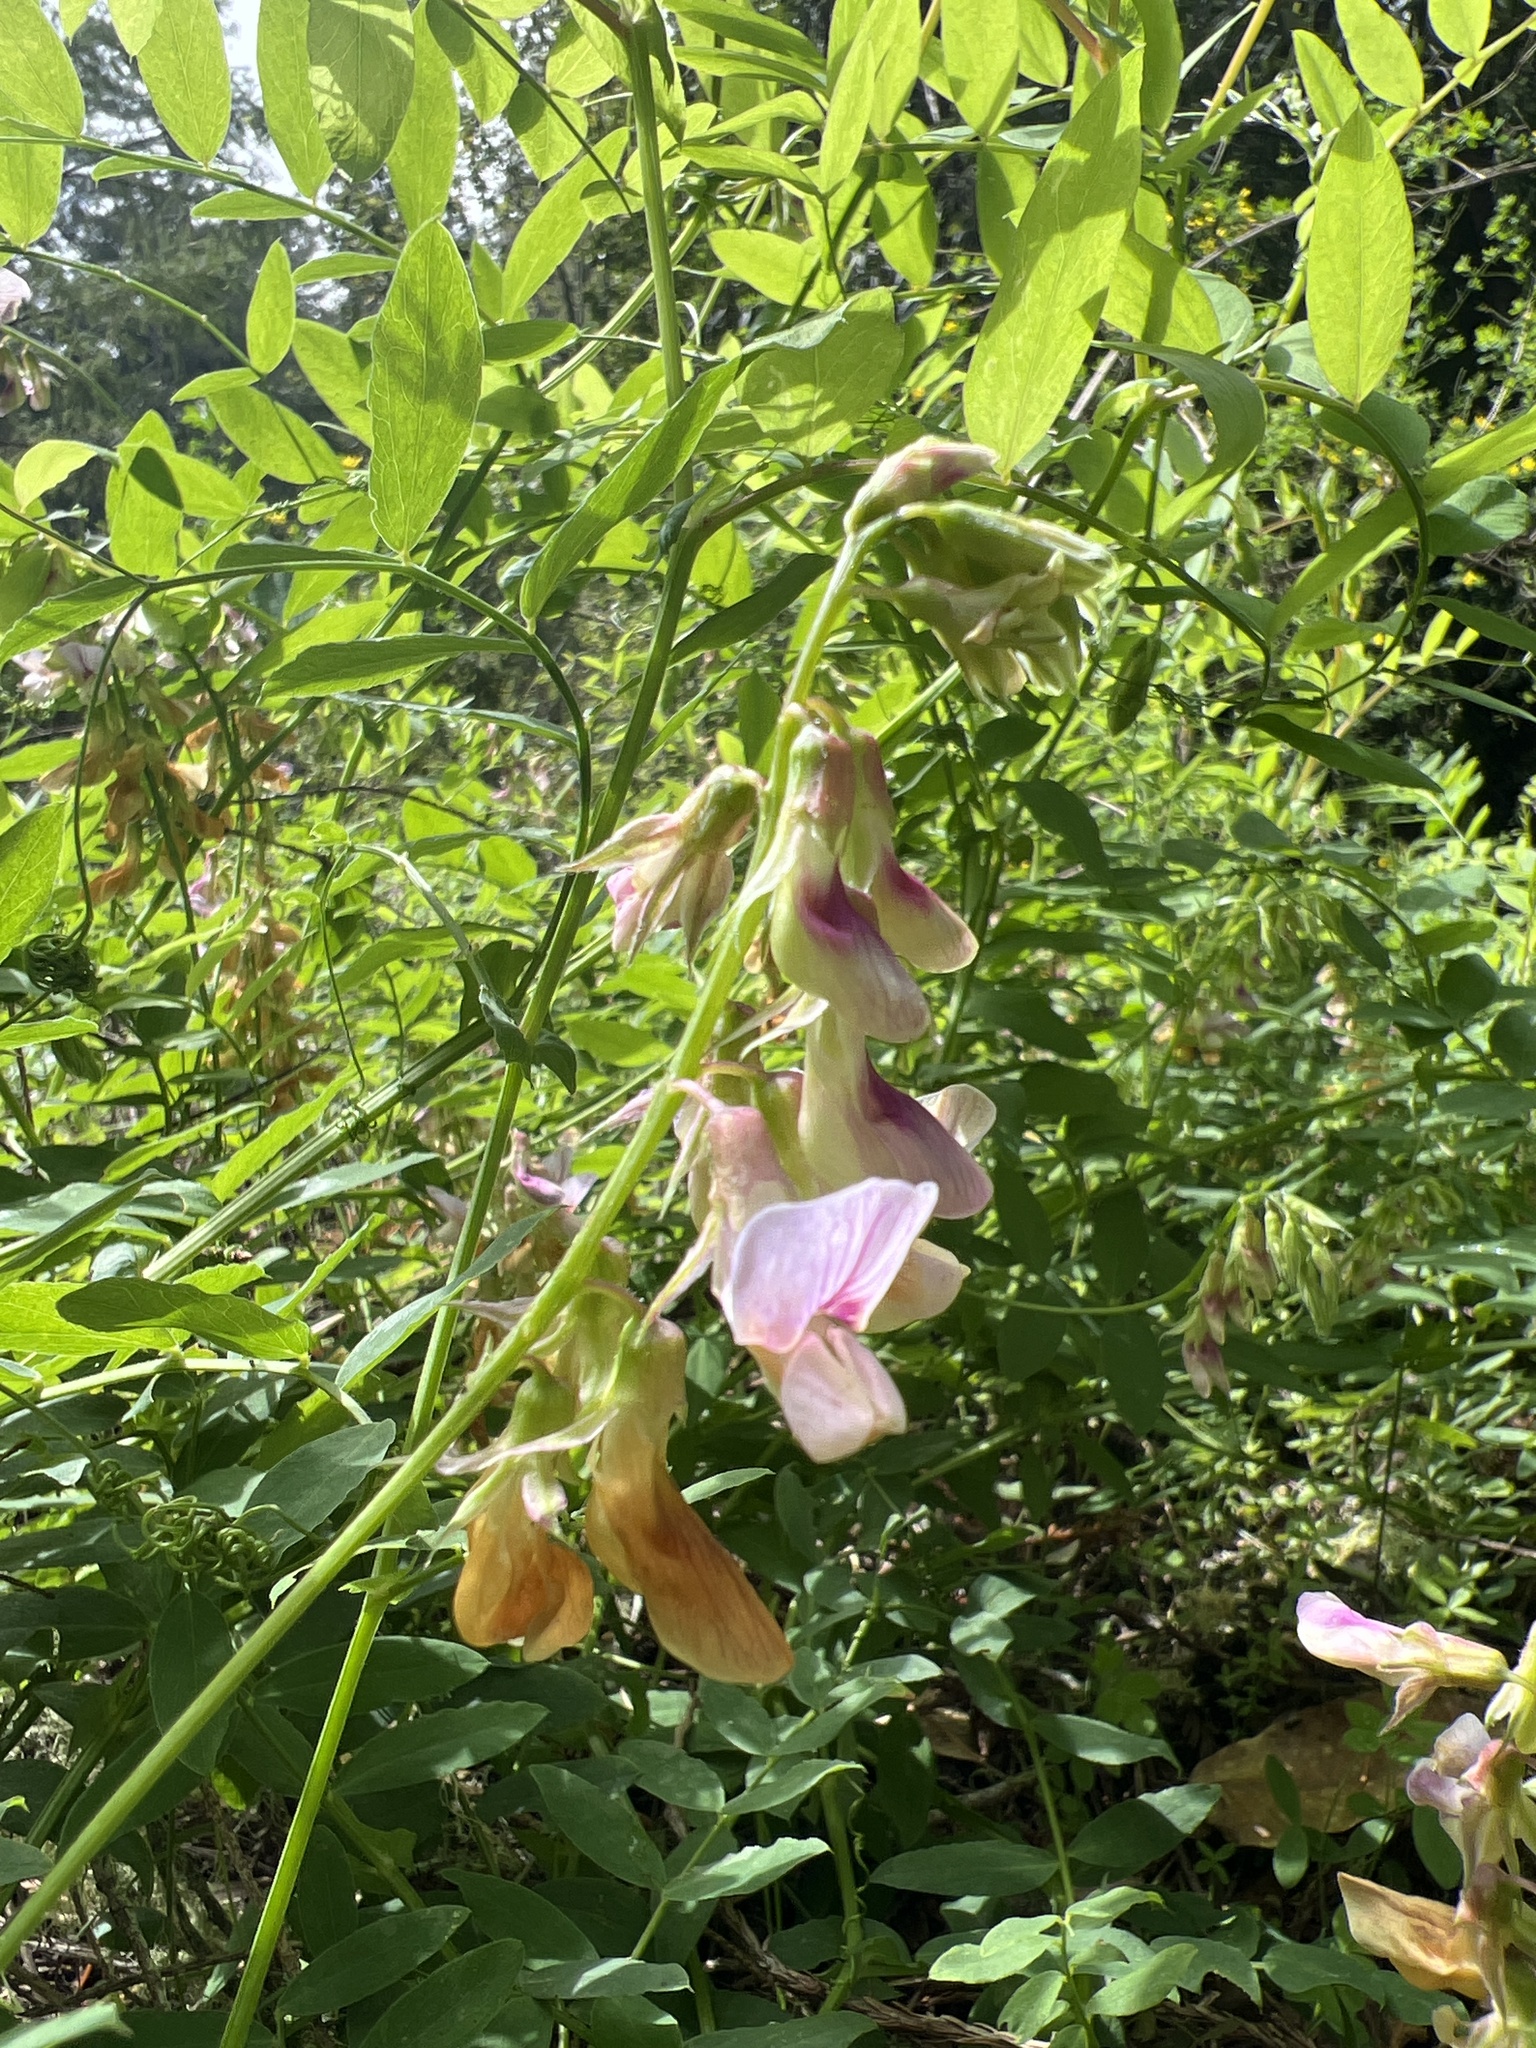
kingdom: Plantae
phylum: Tracheophyta
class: Magnoliopsida
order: Fabales
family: Fabaceae
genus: Lathyrus
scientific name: Lathyrus vestitus
